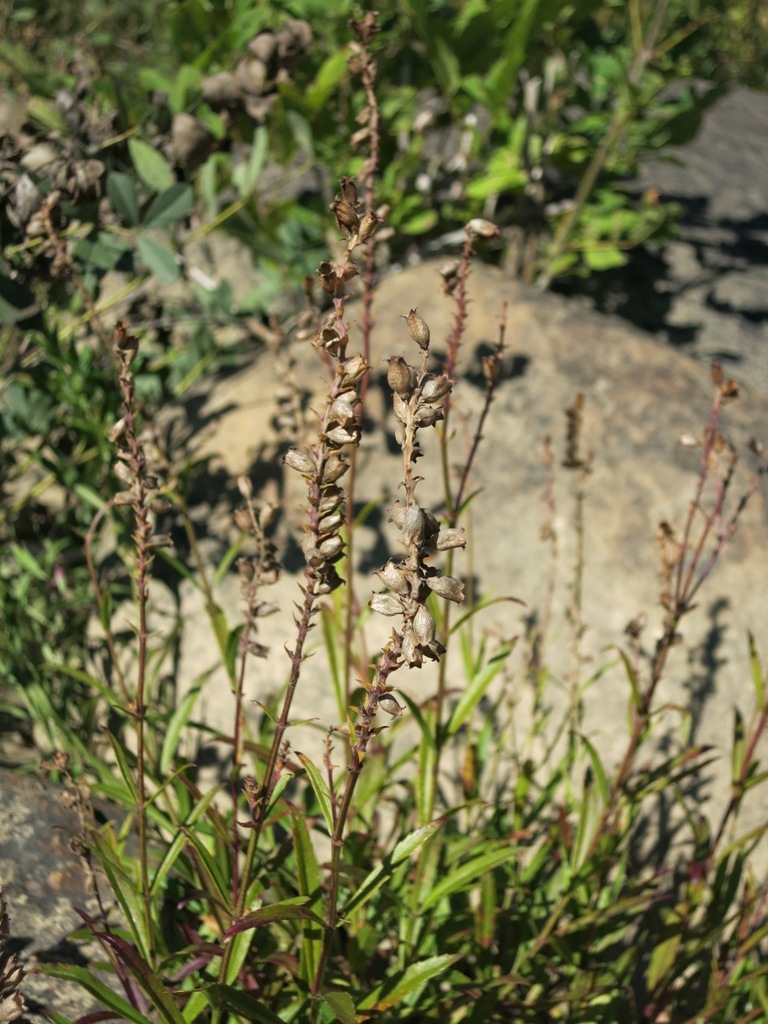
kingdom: Plantae
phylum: Tracheophyta
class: Magnoliopsida
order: Lamiales
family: Lamiaceae
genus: Physostegia
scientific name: Physostegia virginiana
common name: Obedient-plant
